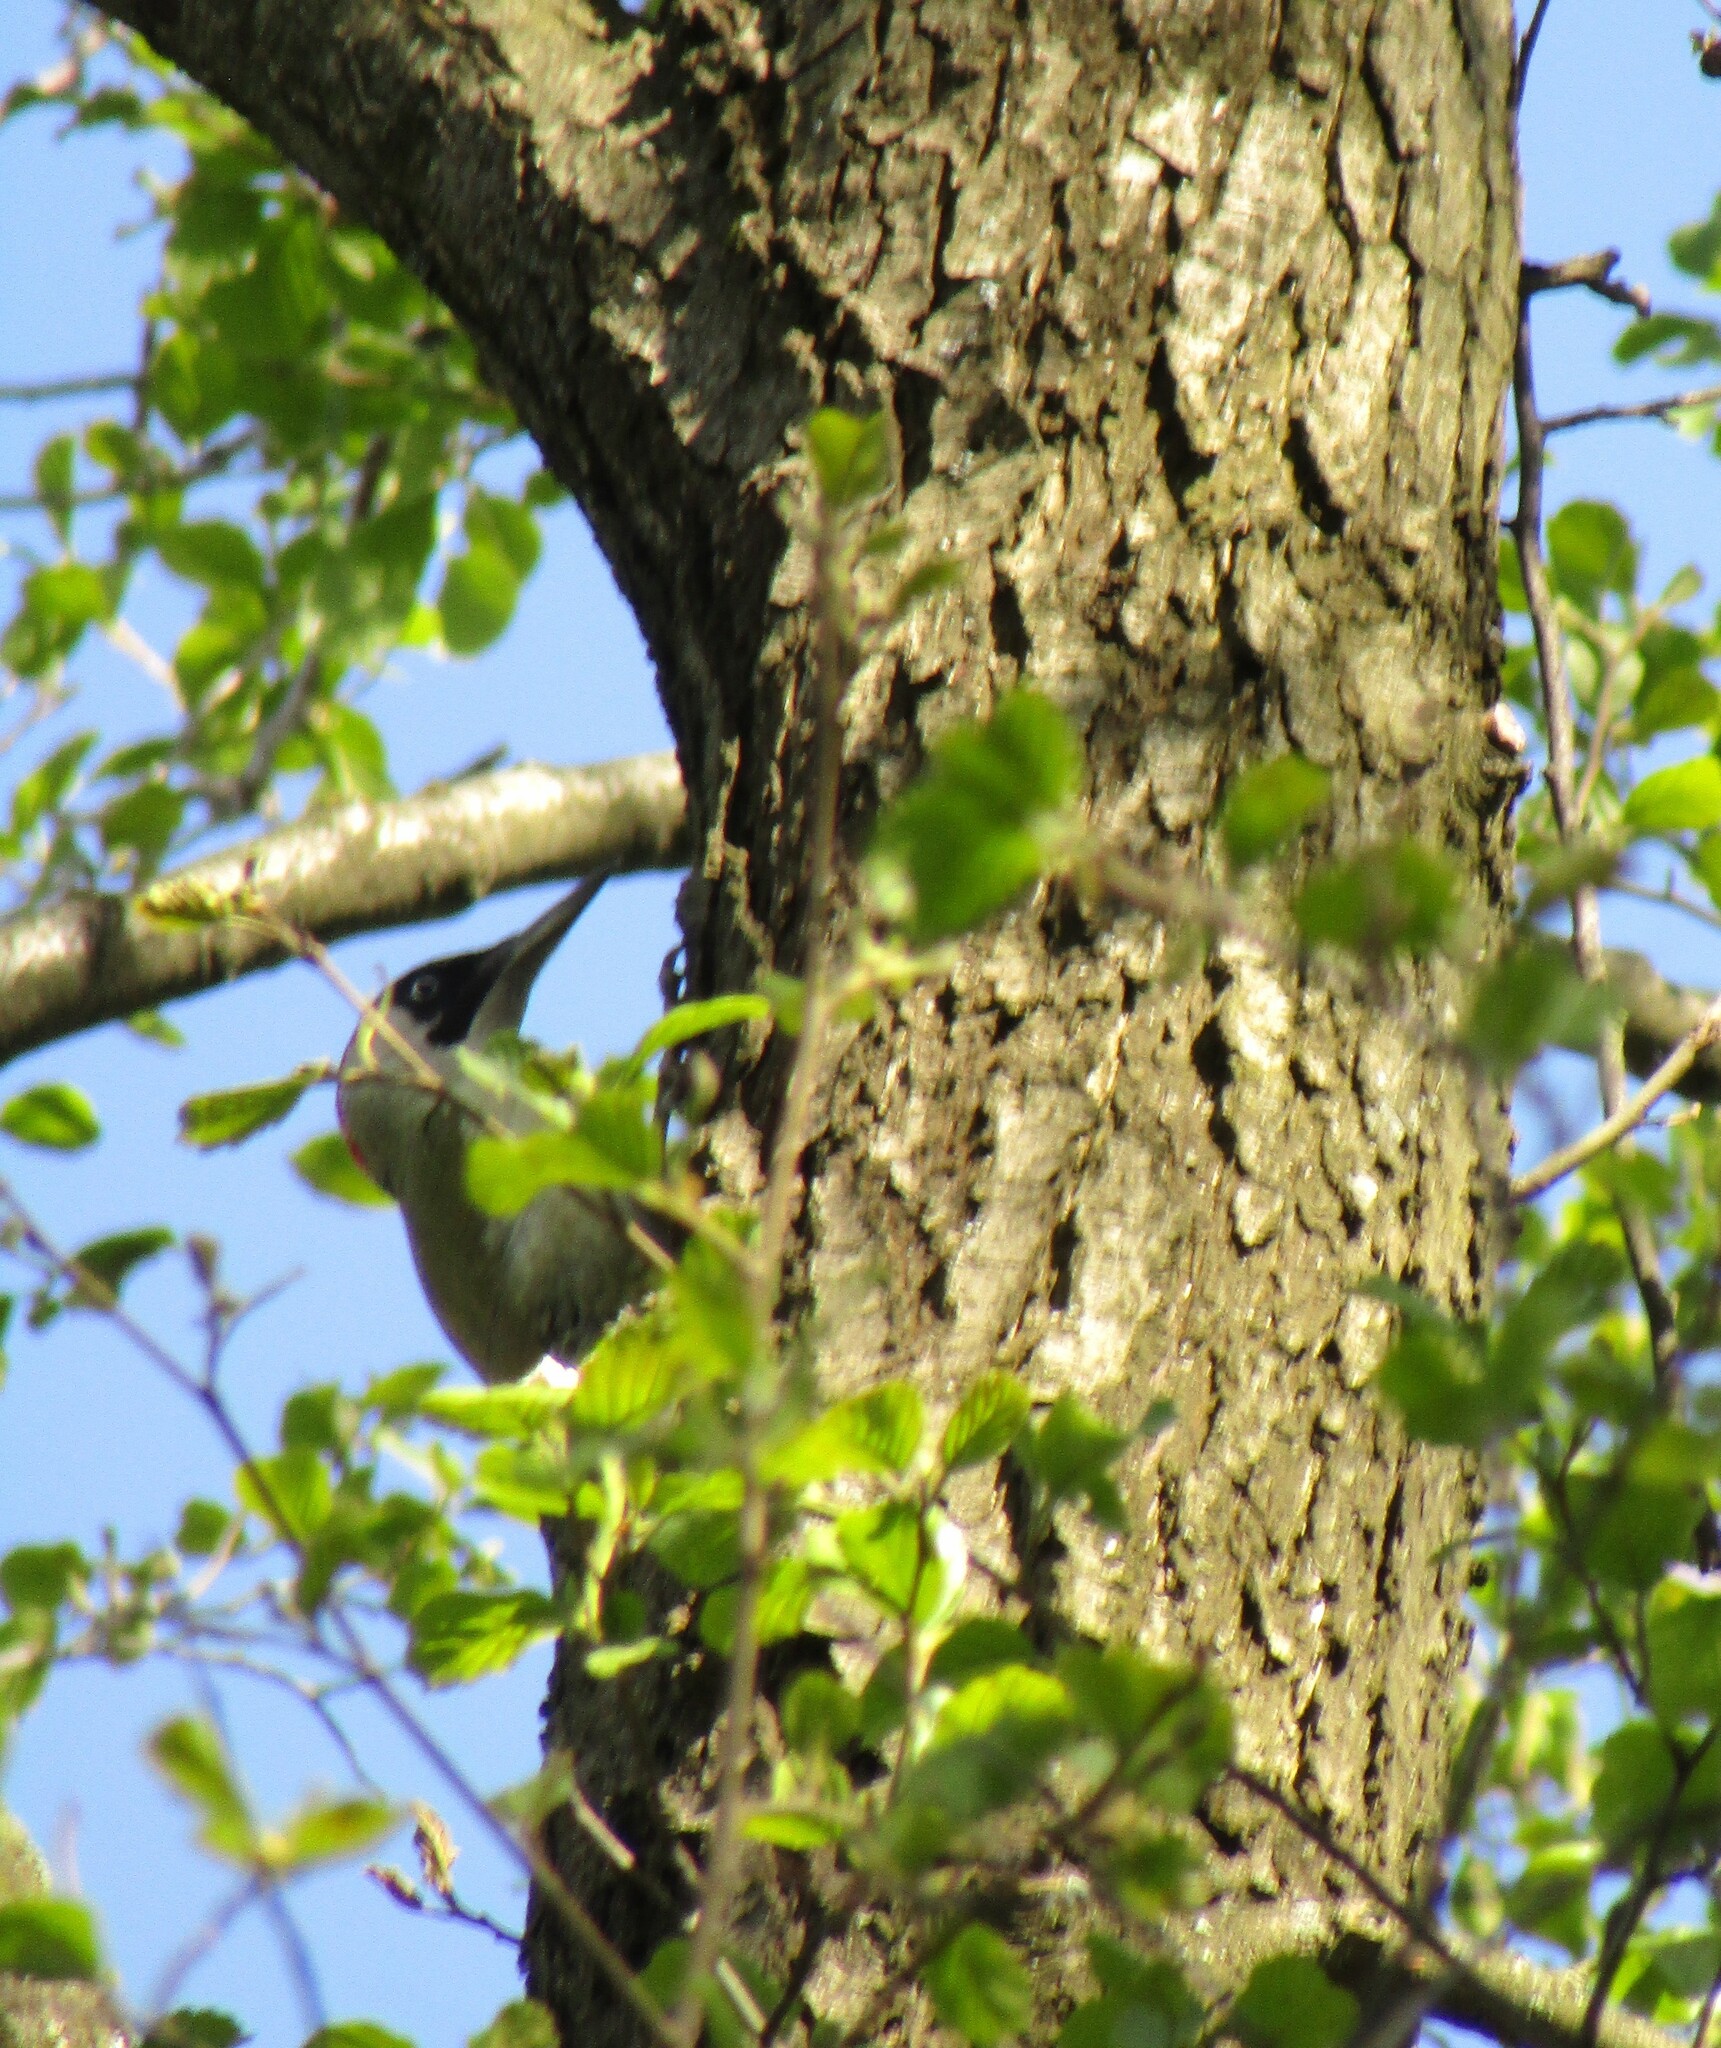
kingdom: Animalia
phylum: Chordata
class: Aves
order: Piciformes
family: Picidae
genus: Picus
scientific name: Picus viridis
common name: European green woodpecker
